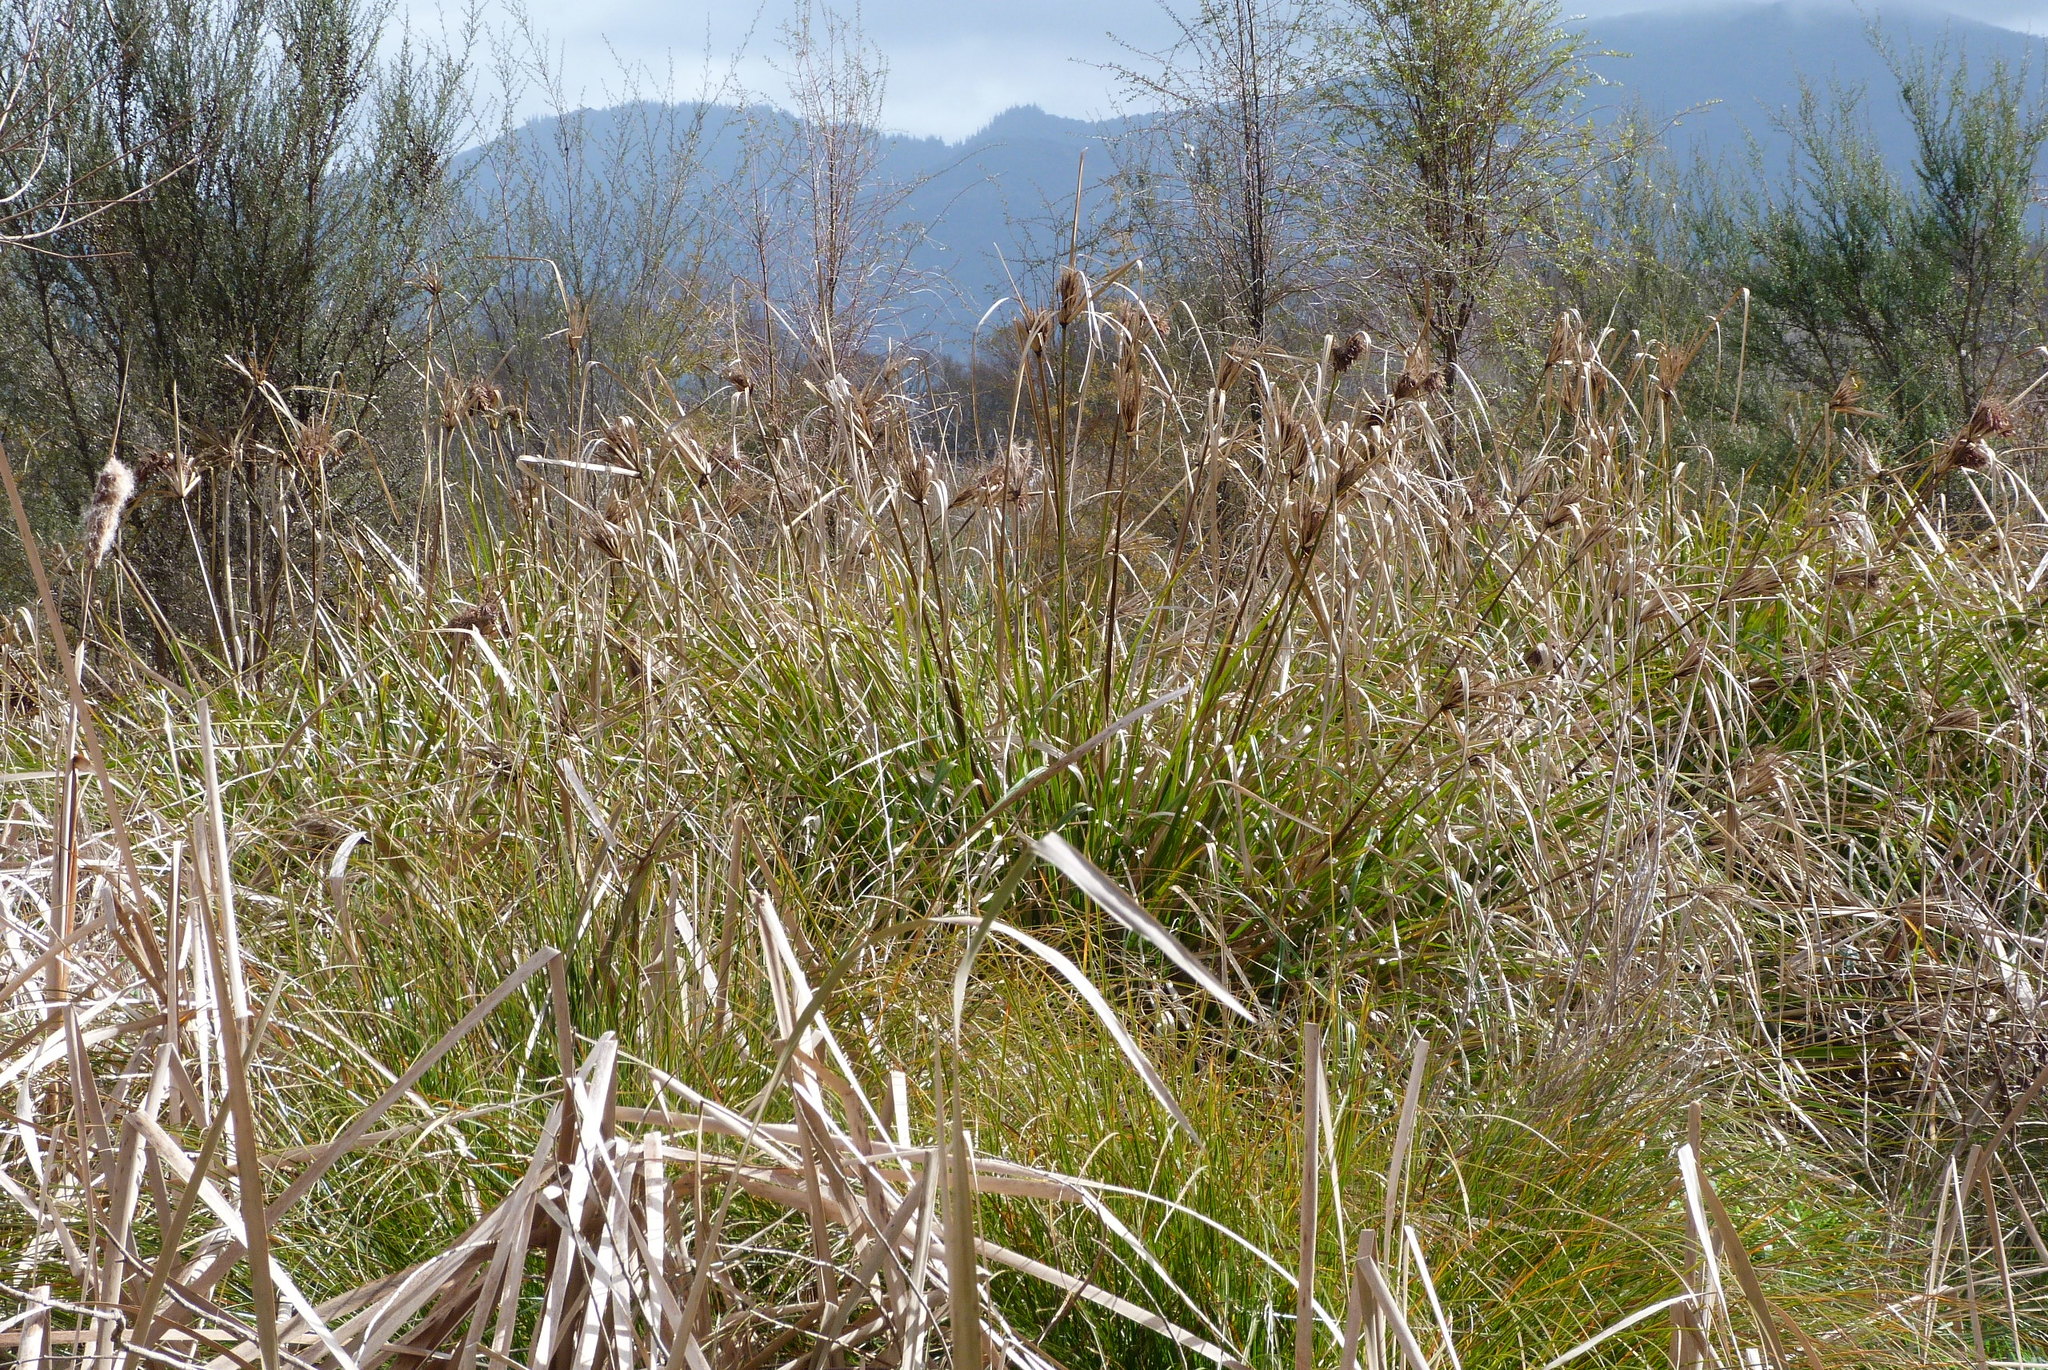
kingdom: Plantae
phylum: Tracheophyta
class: Liliopsida
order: Poales
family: Cyperaceae
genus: Cyperus
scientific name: Cyperus ustulatus
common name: Giant umbrella-sedge
